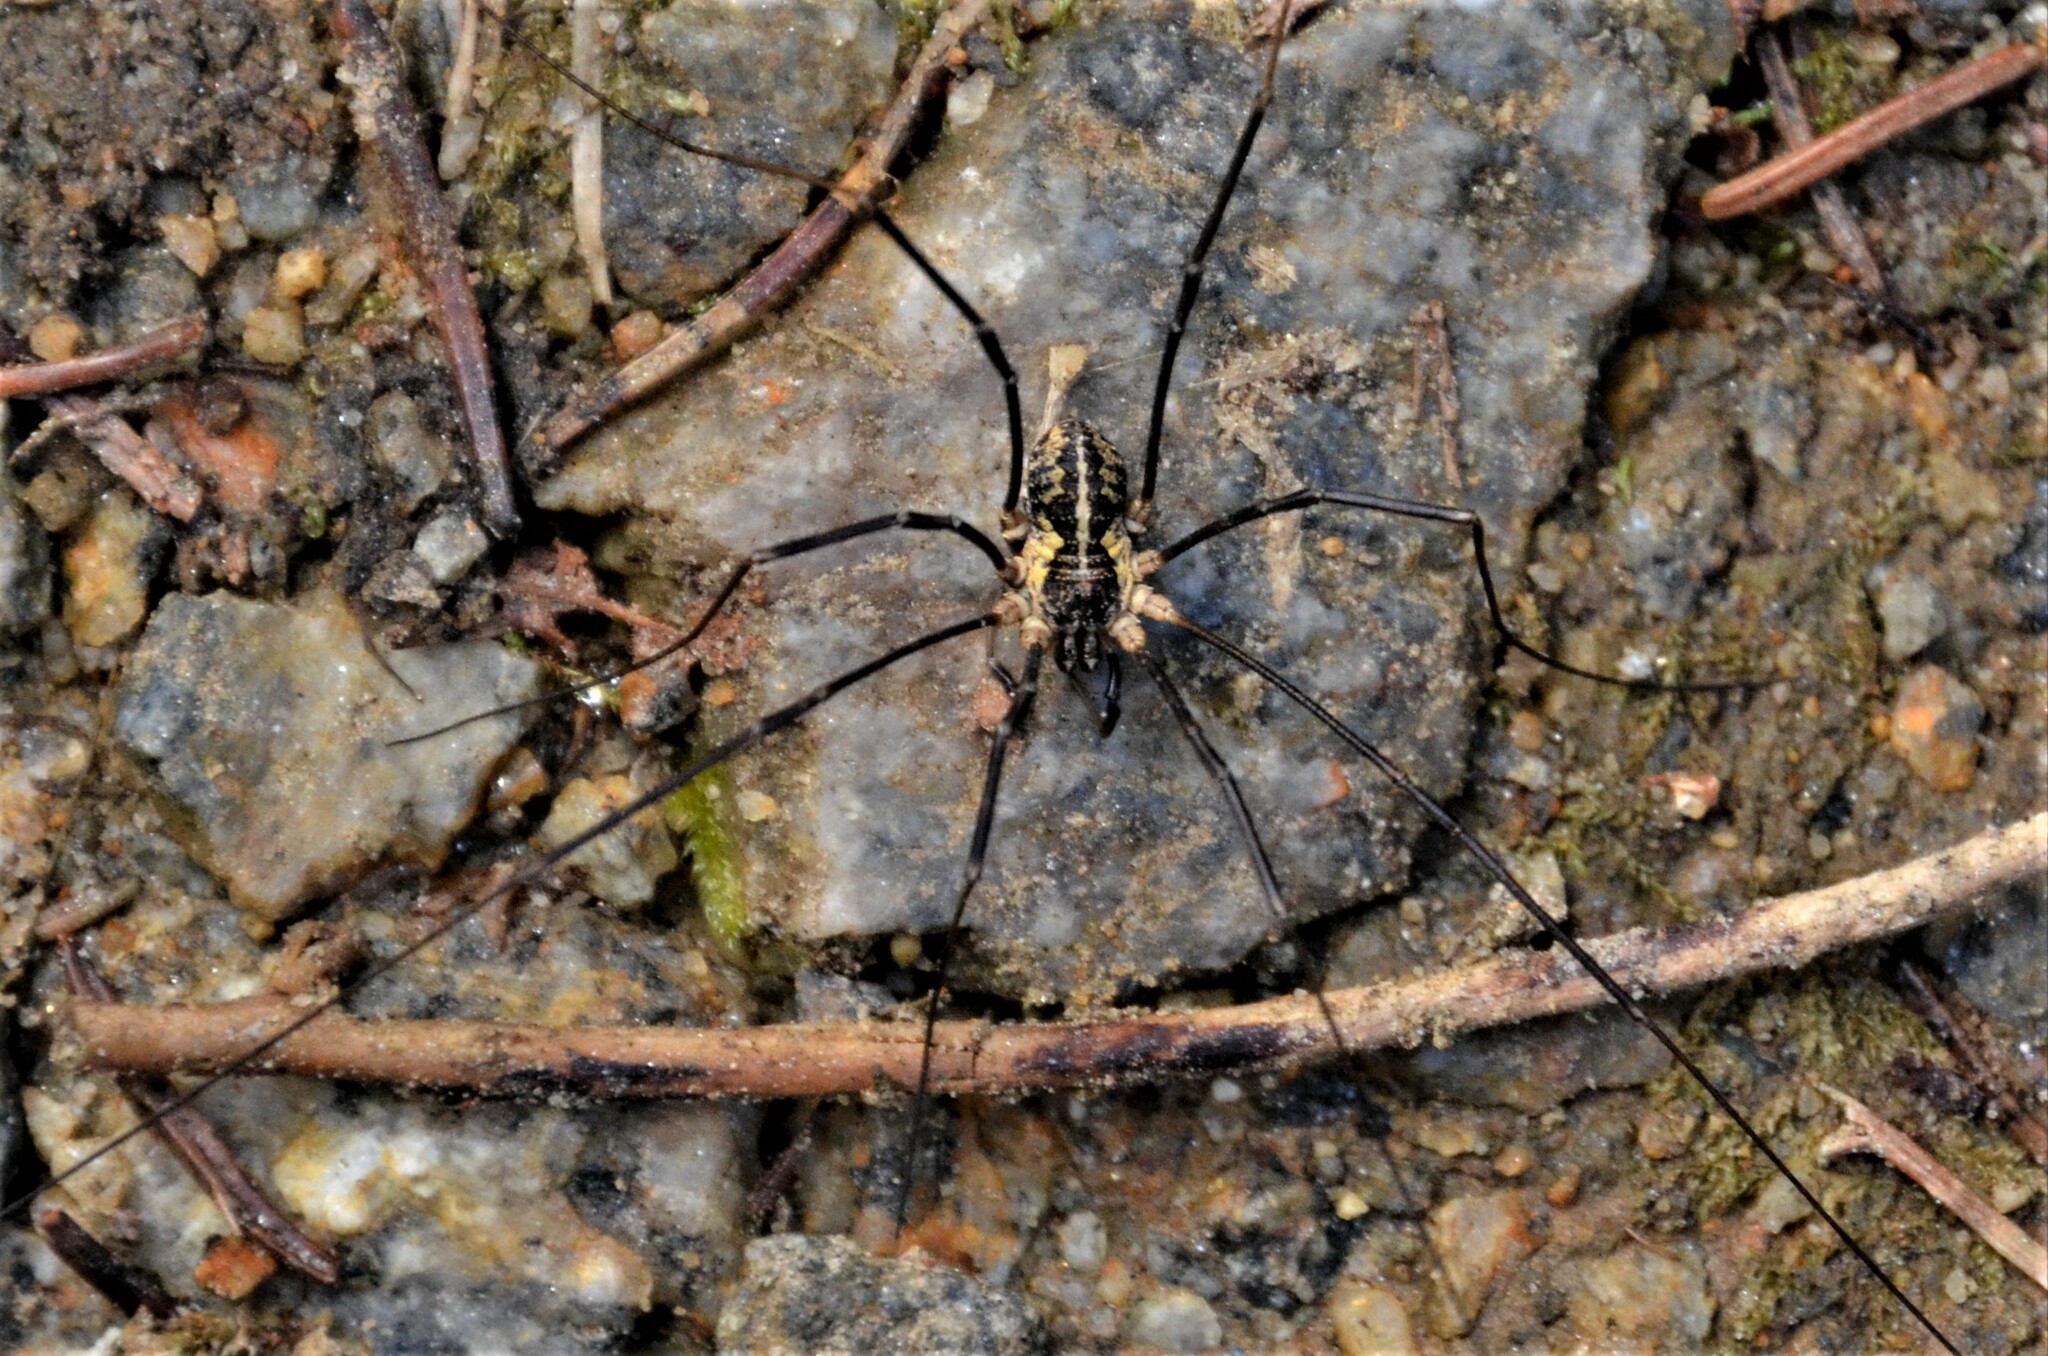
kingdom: Animalia
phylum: Arthropoda
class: Arachnida
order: Opiliones
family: Phalangiidae
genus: Mitopus
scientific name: Mitopus morio
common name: Saddleback harvestman
